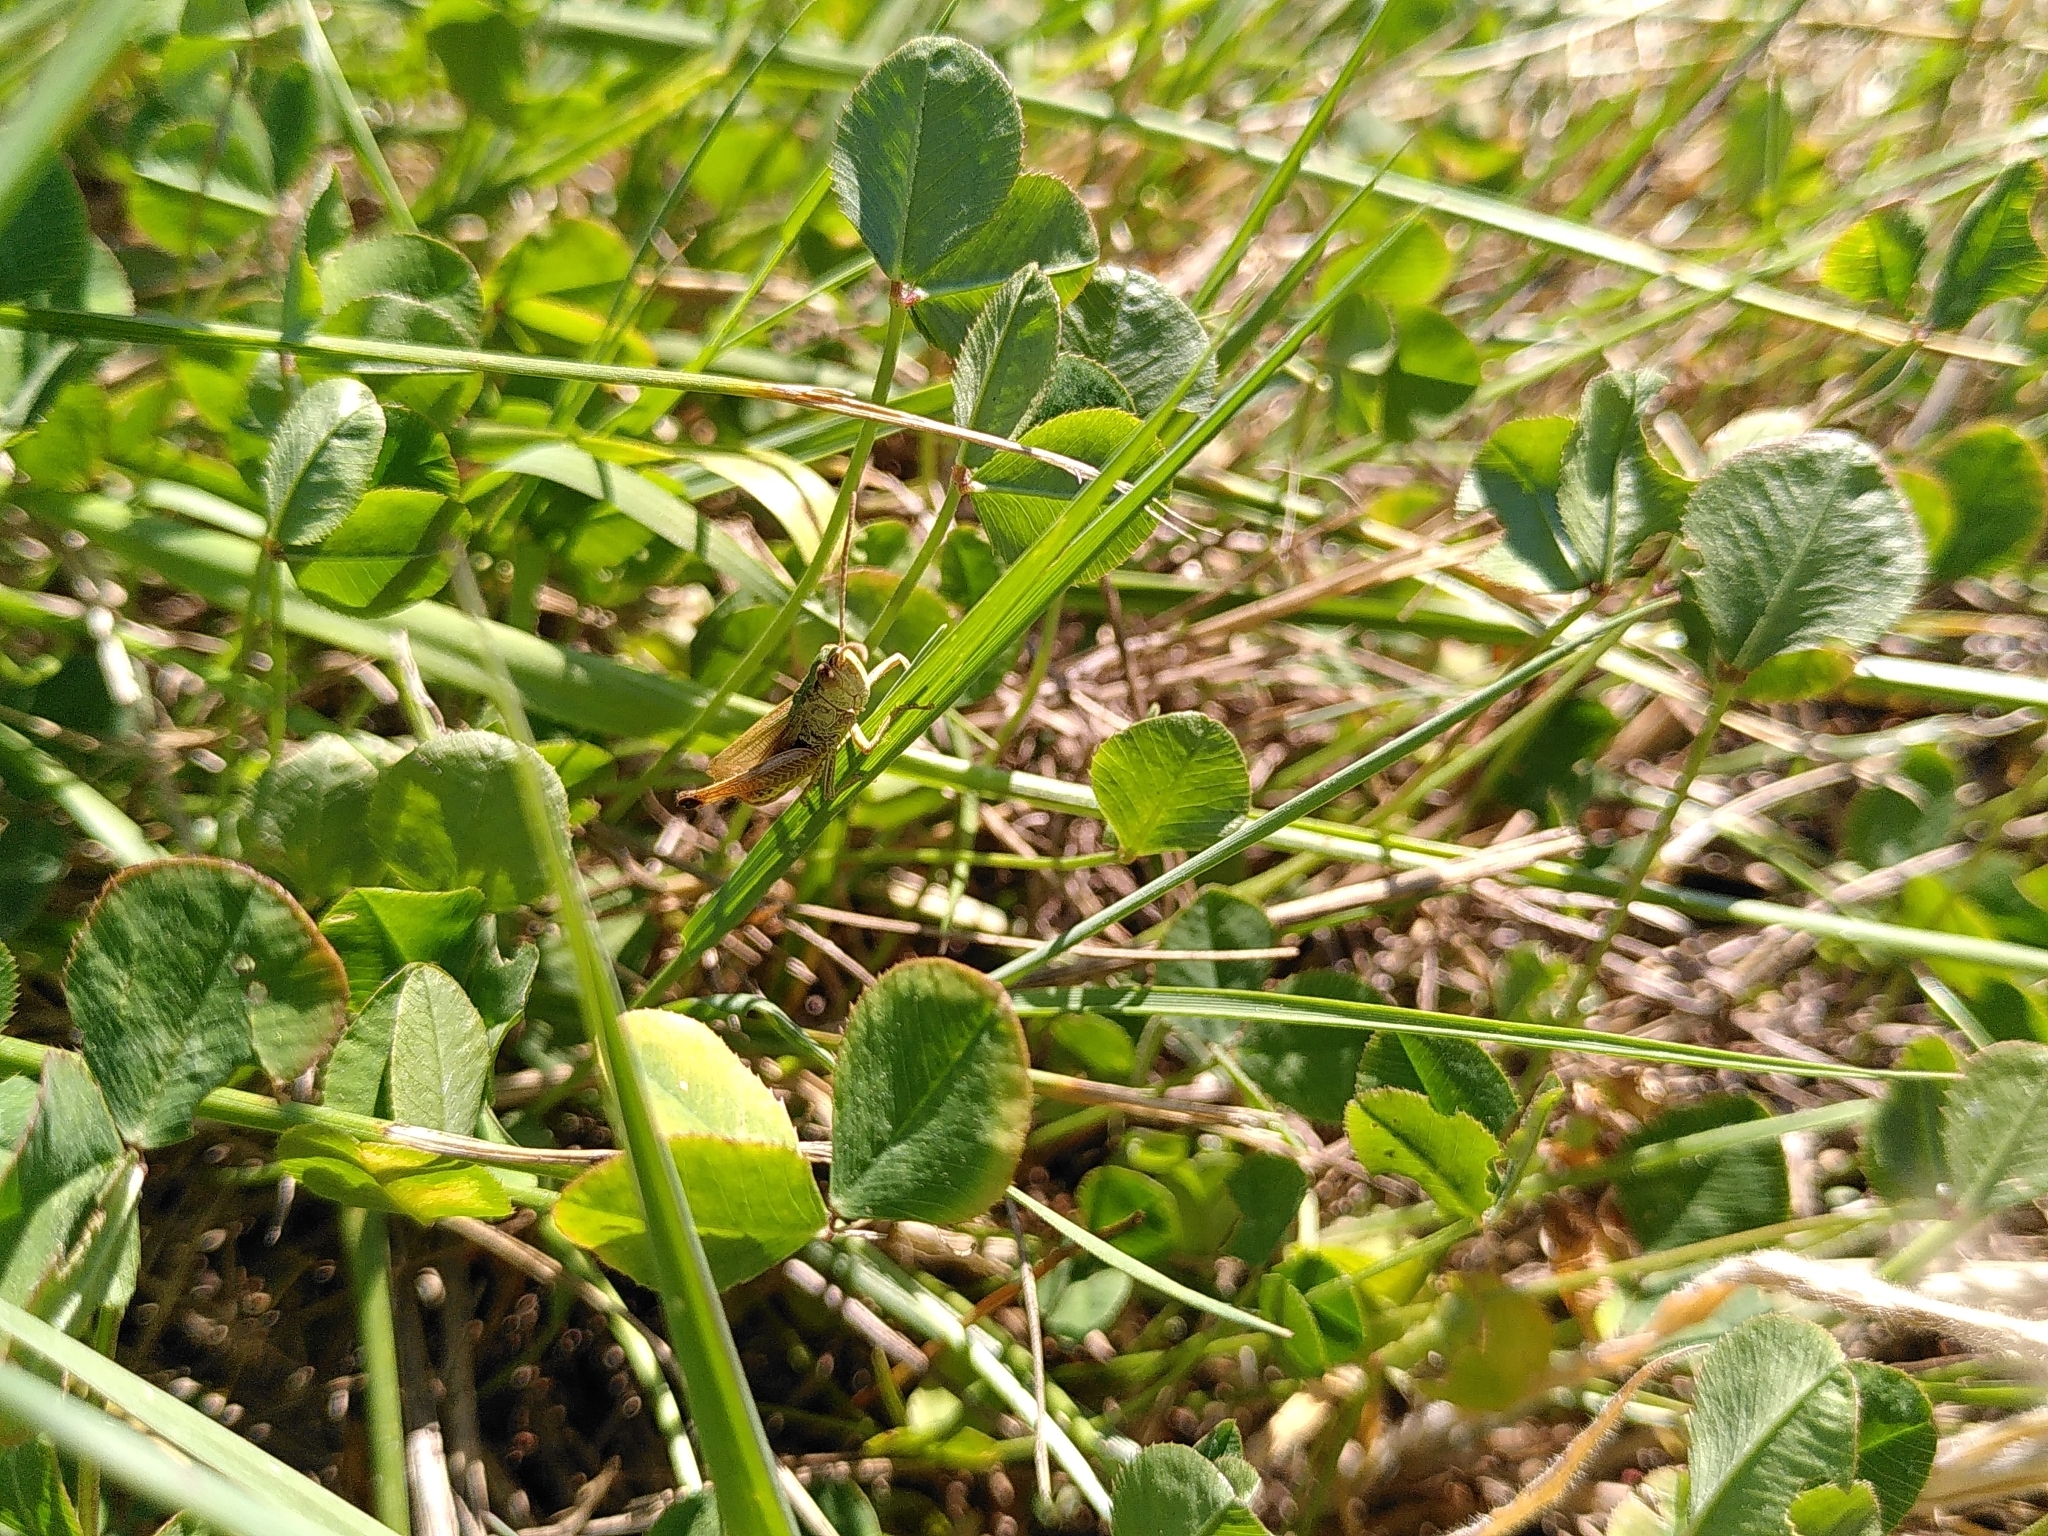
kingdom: Animalia
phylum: Arthropoda
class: Insecta
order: Orthoptera
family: Acrididae
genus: Pseudochorthippus
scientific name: Pseudochorthippus parallelus
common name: Meadow grasshopper
